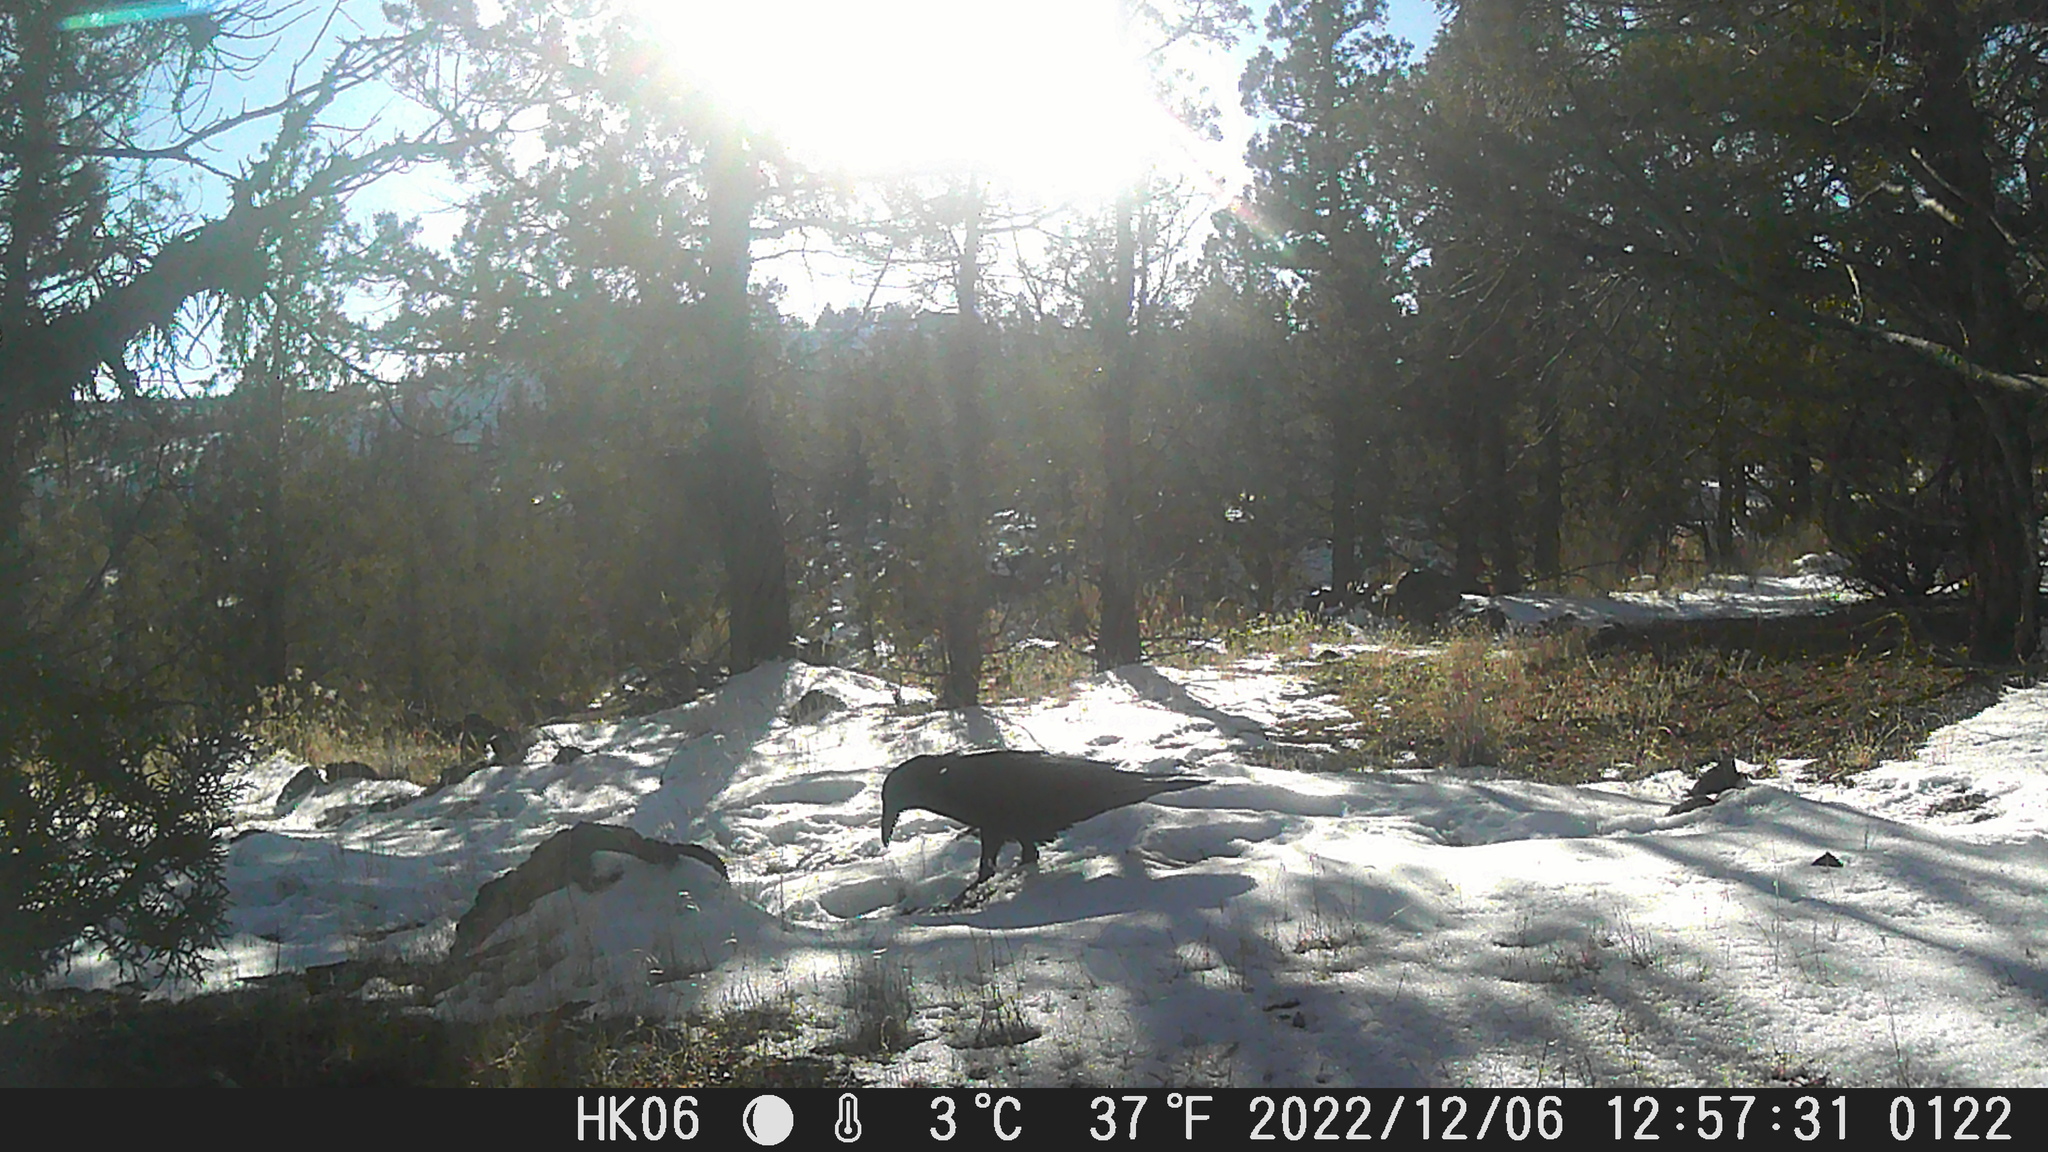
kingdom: Animalia
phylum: Chordata
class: Aves
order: Passeriformes
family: Corvidae
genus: Corvus
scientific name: Corvus corax
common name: Common raven
